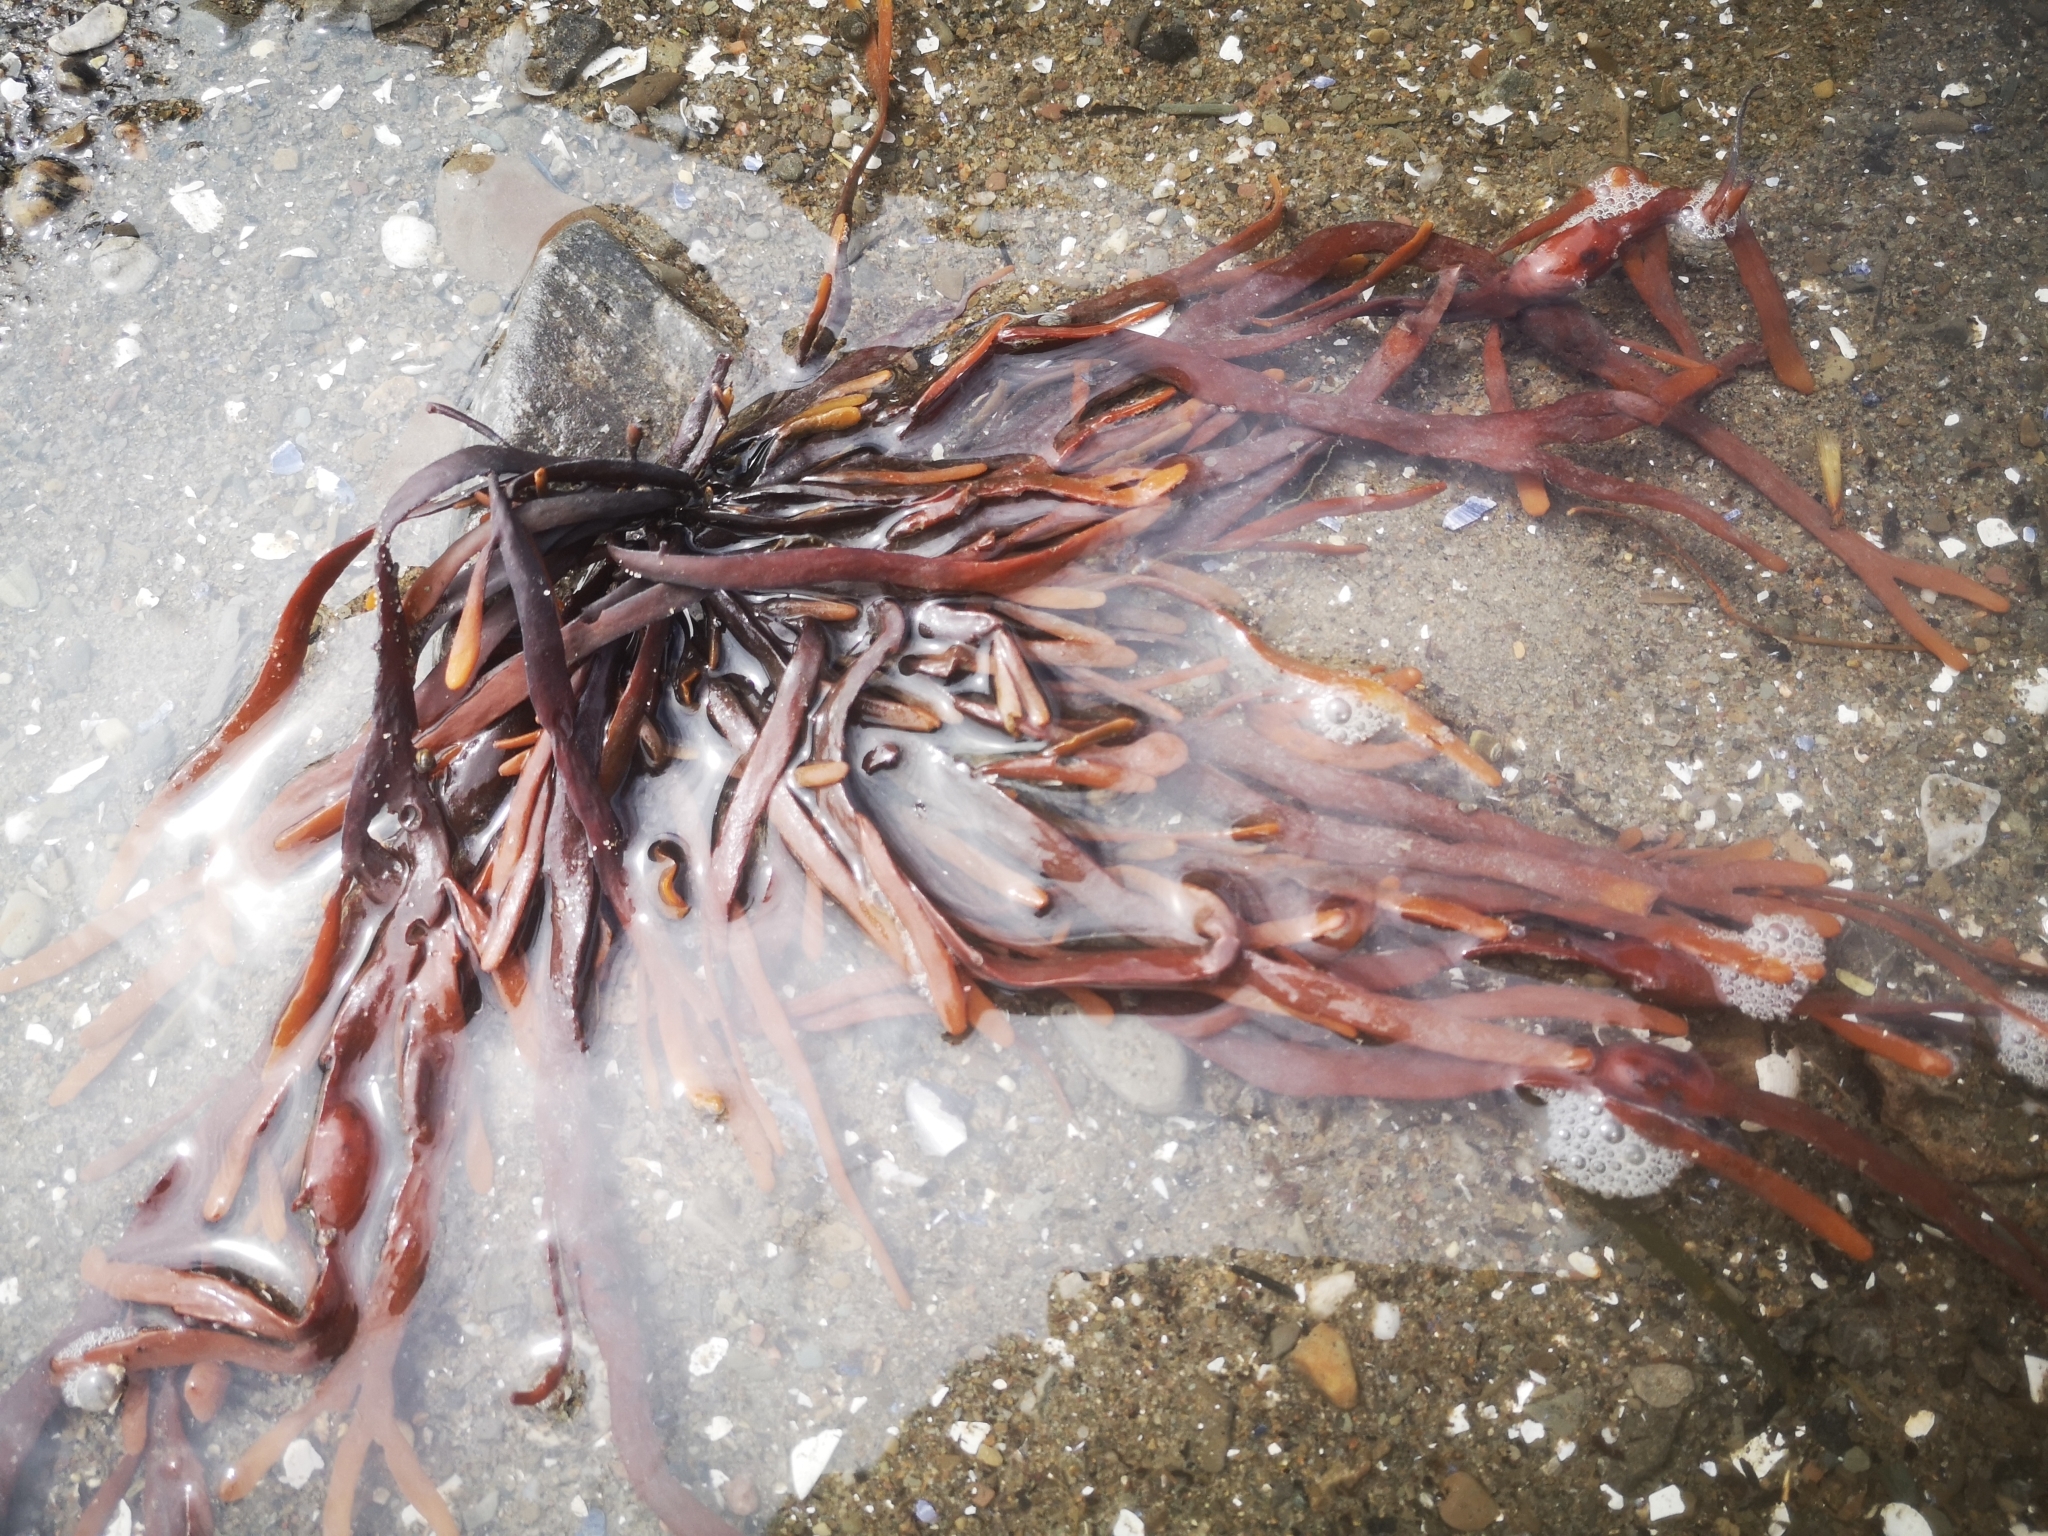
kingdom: Chromista
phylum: Ochrophyta
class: Phaeophyceae
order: Fucales
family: Fucaceae
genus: Ascophyllum
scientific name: Ascophyllum nodosum
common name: Knotted wrack
